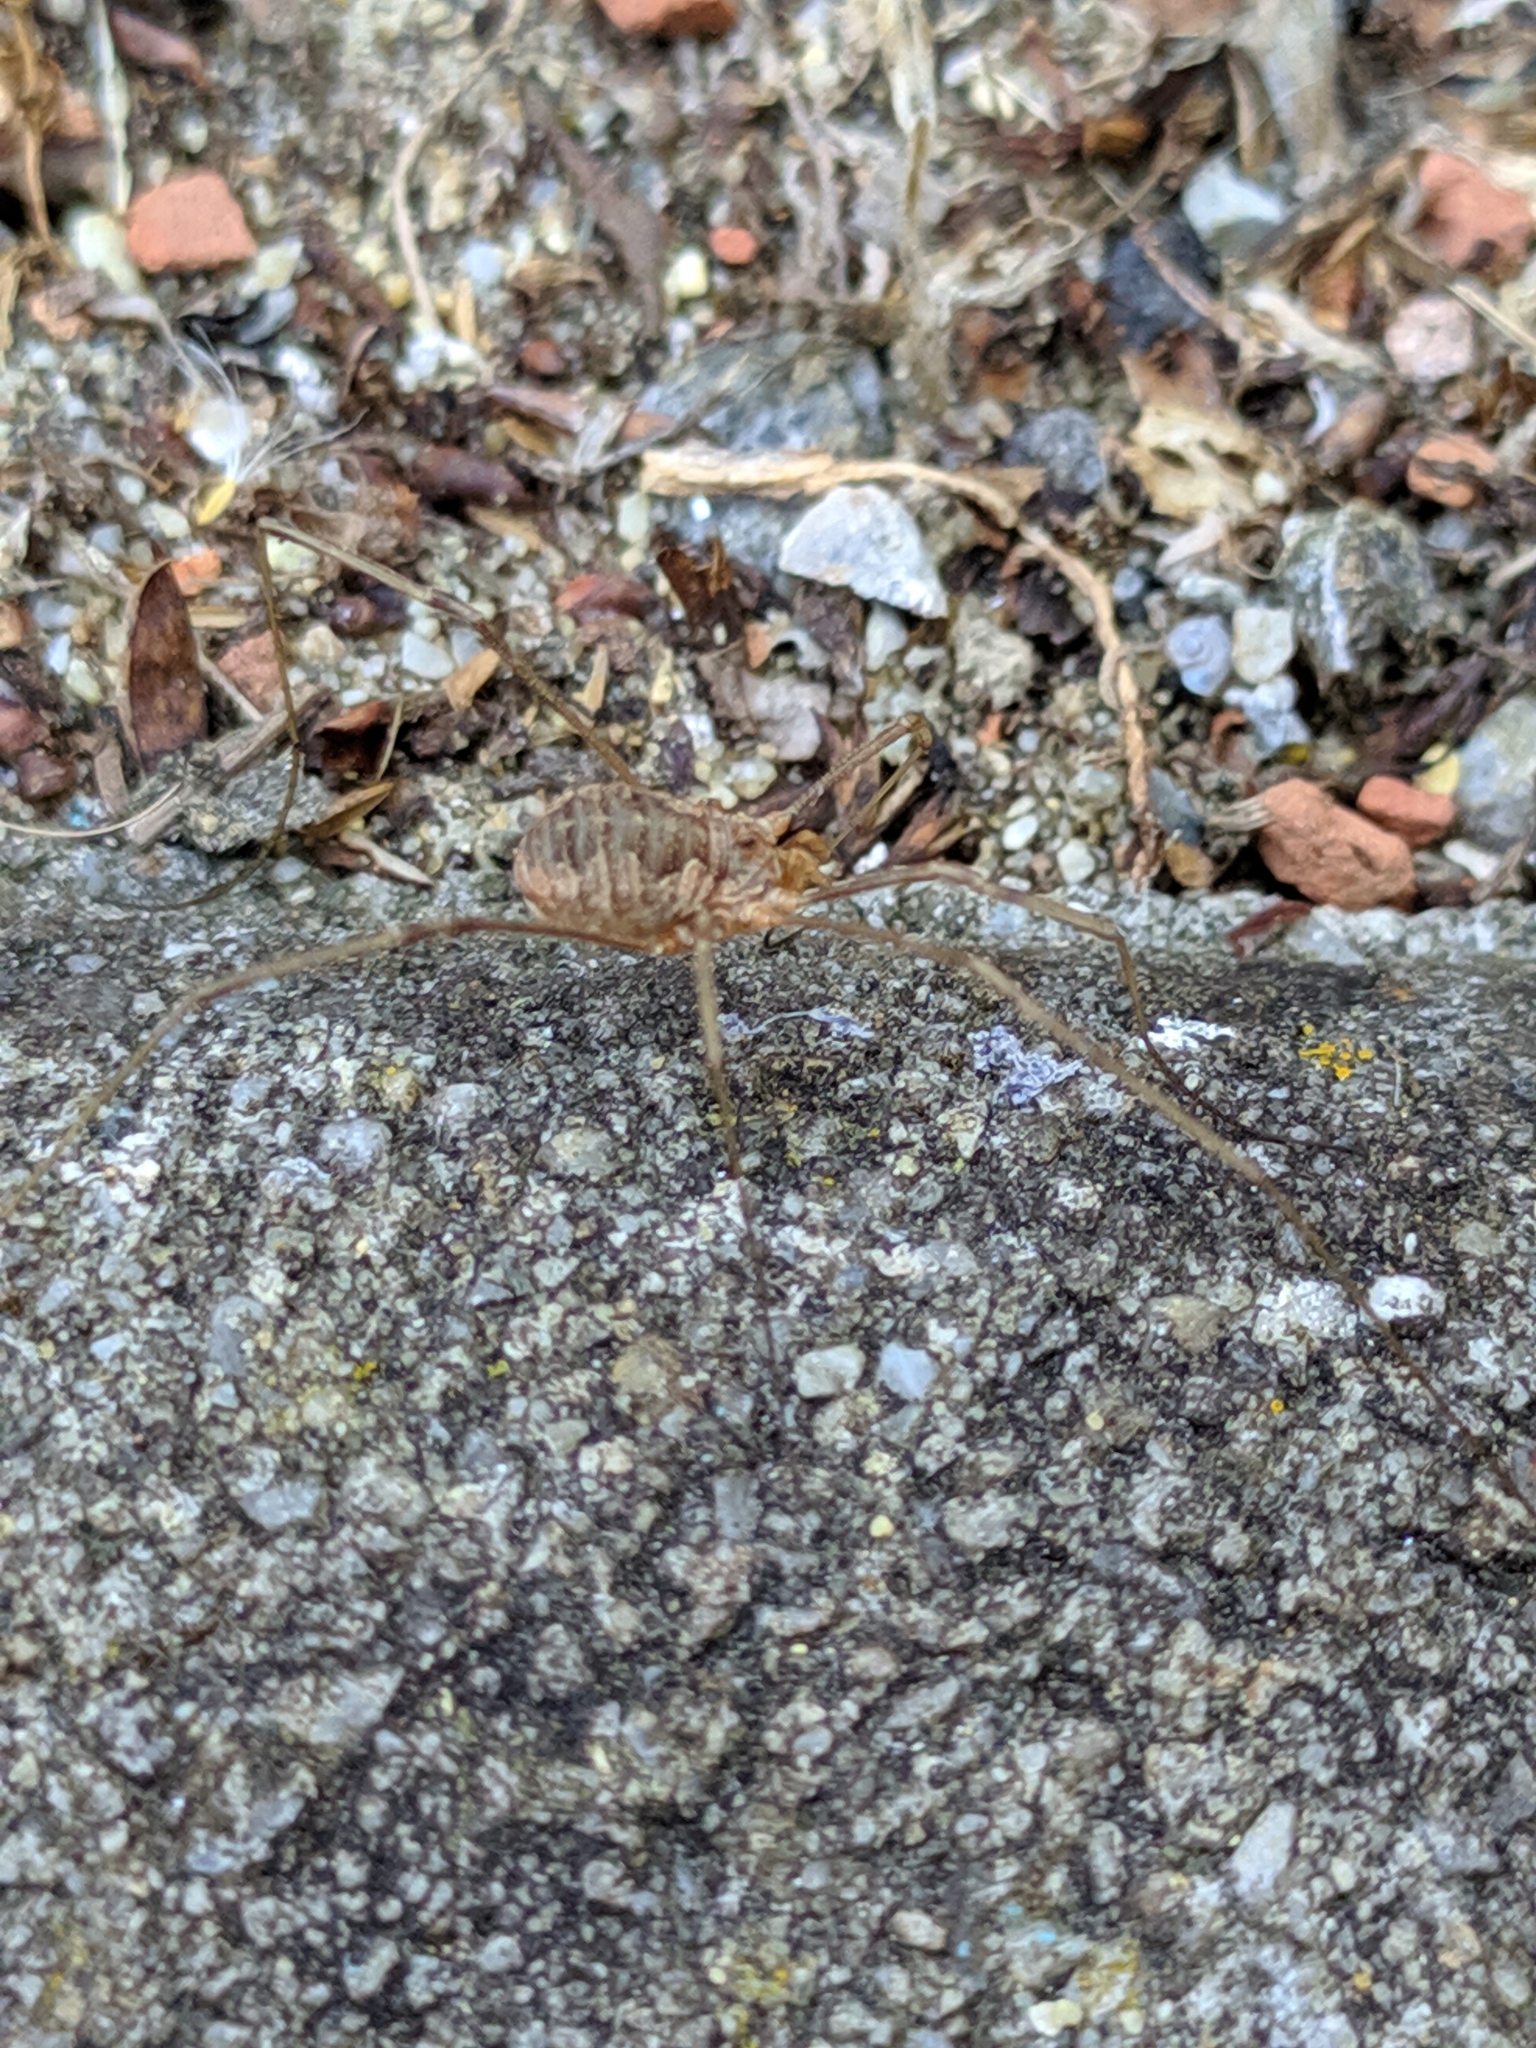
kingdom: Animalia
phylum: Arthropoda
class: Arachnida
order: Opiliones
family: Phalangiidae
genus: Phalangium
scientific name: Phalangium opilio
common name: Daddy longleg
